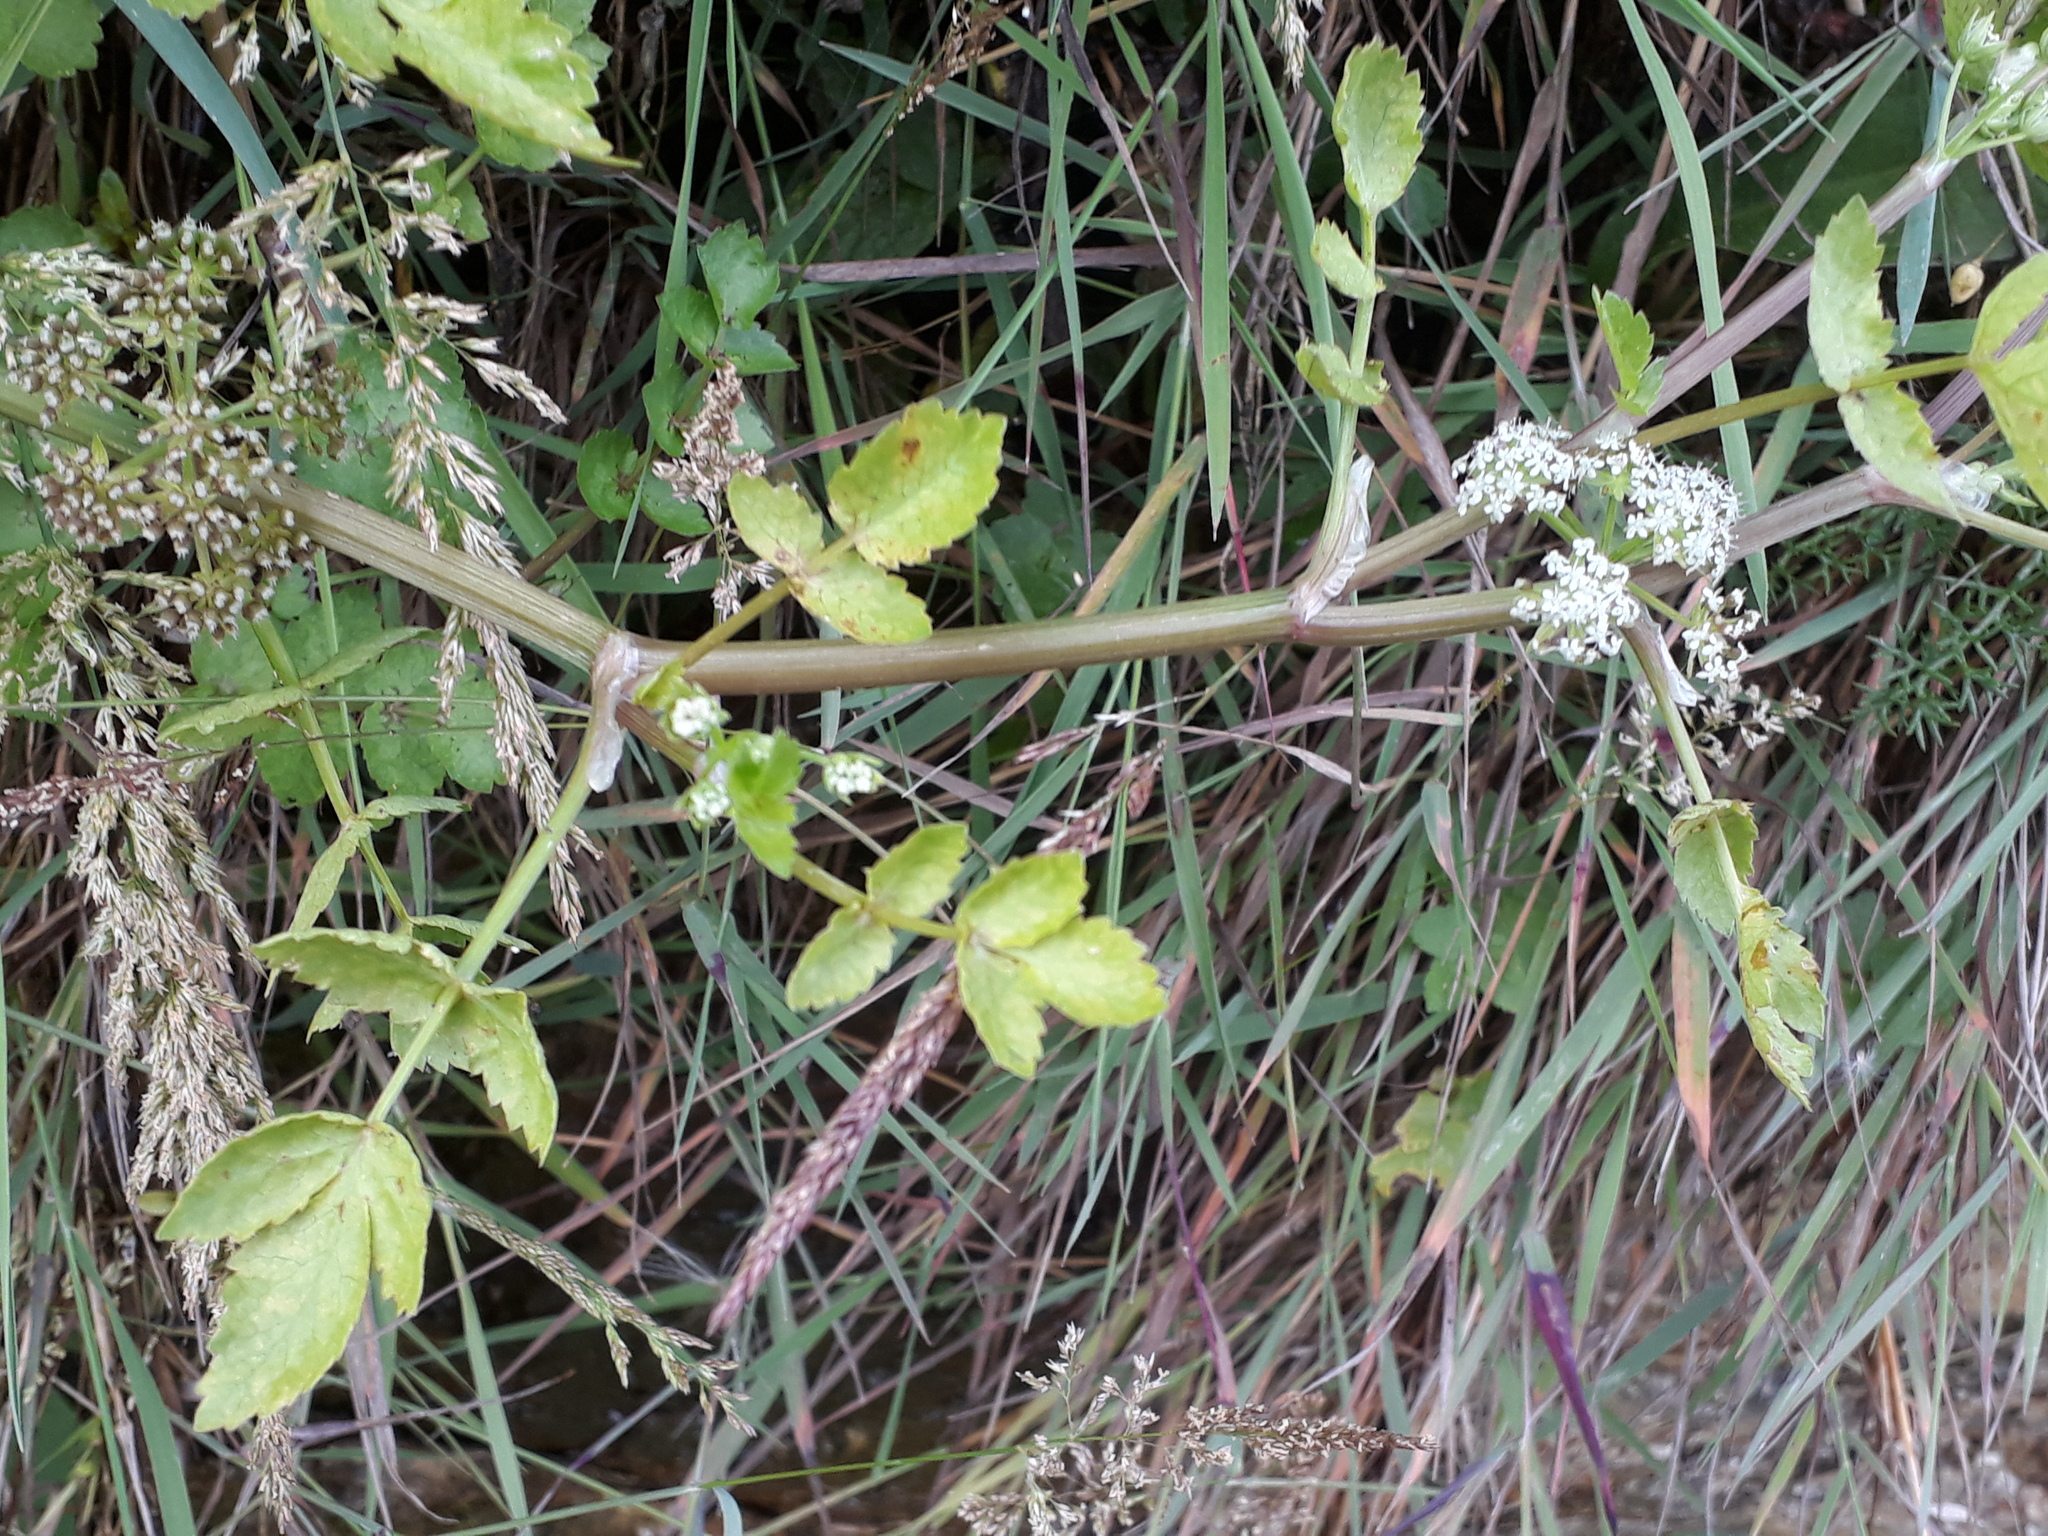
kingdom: Plantae
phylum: Tracheophyta
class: Magnoliopsida
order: Apiales
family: Apiaceae
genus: Helosciadium
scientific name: Helosciadium nodiflorum
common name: Fool's-watercress
